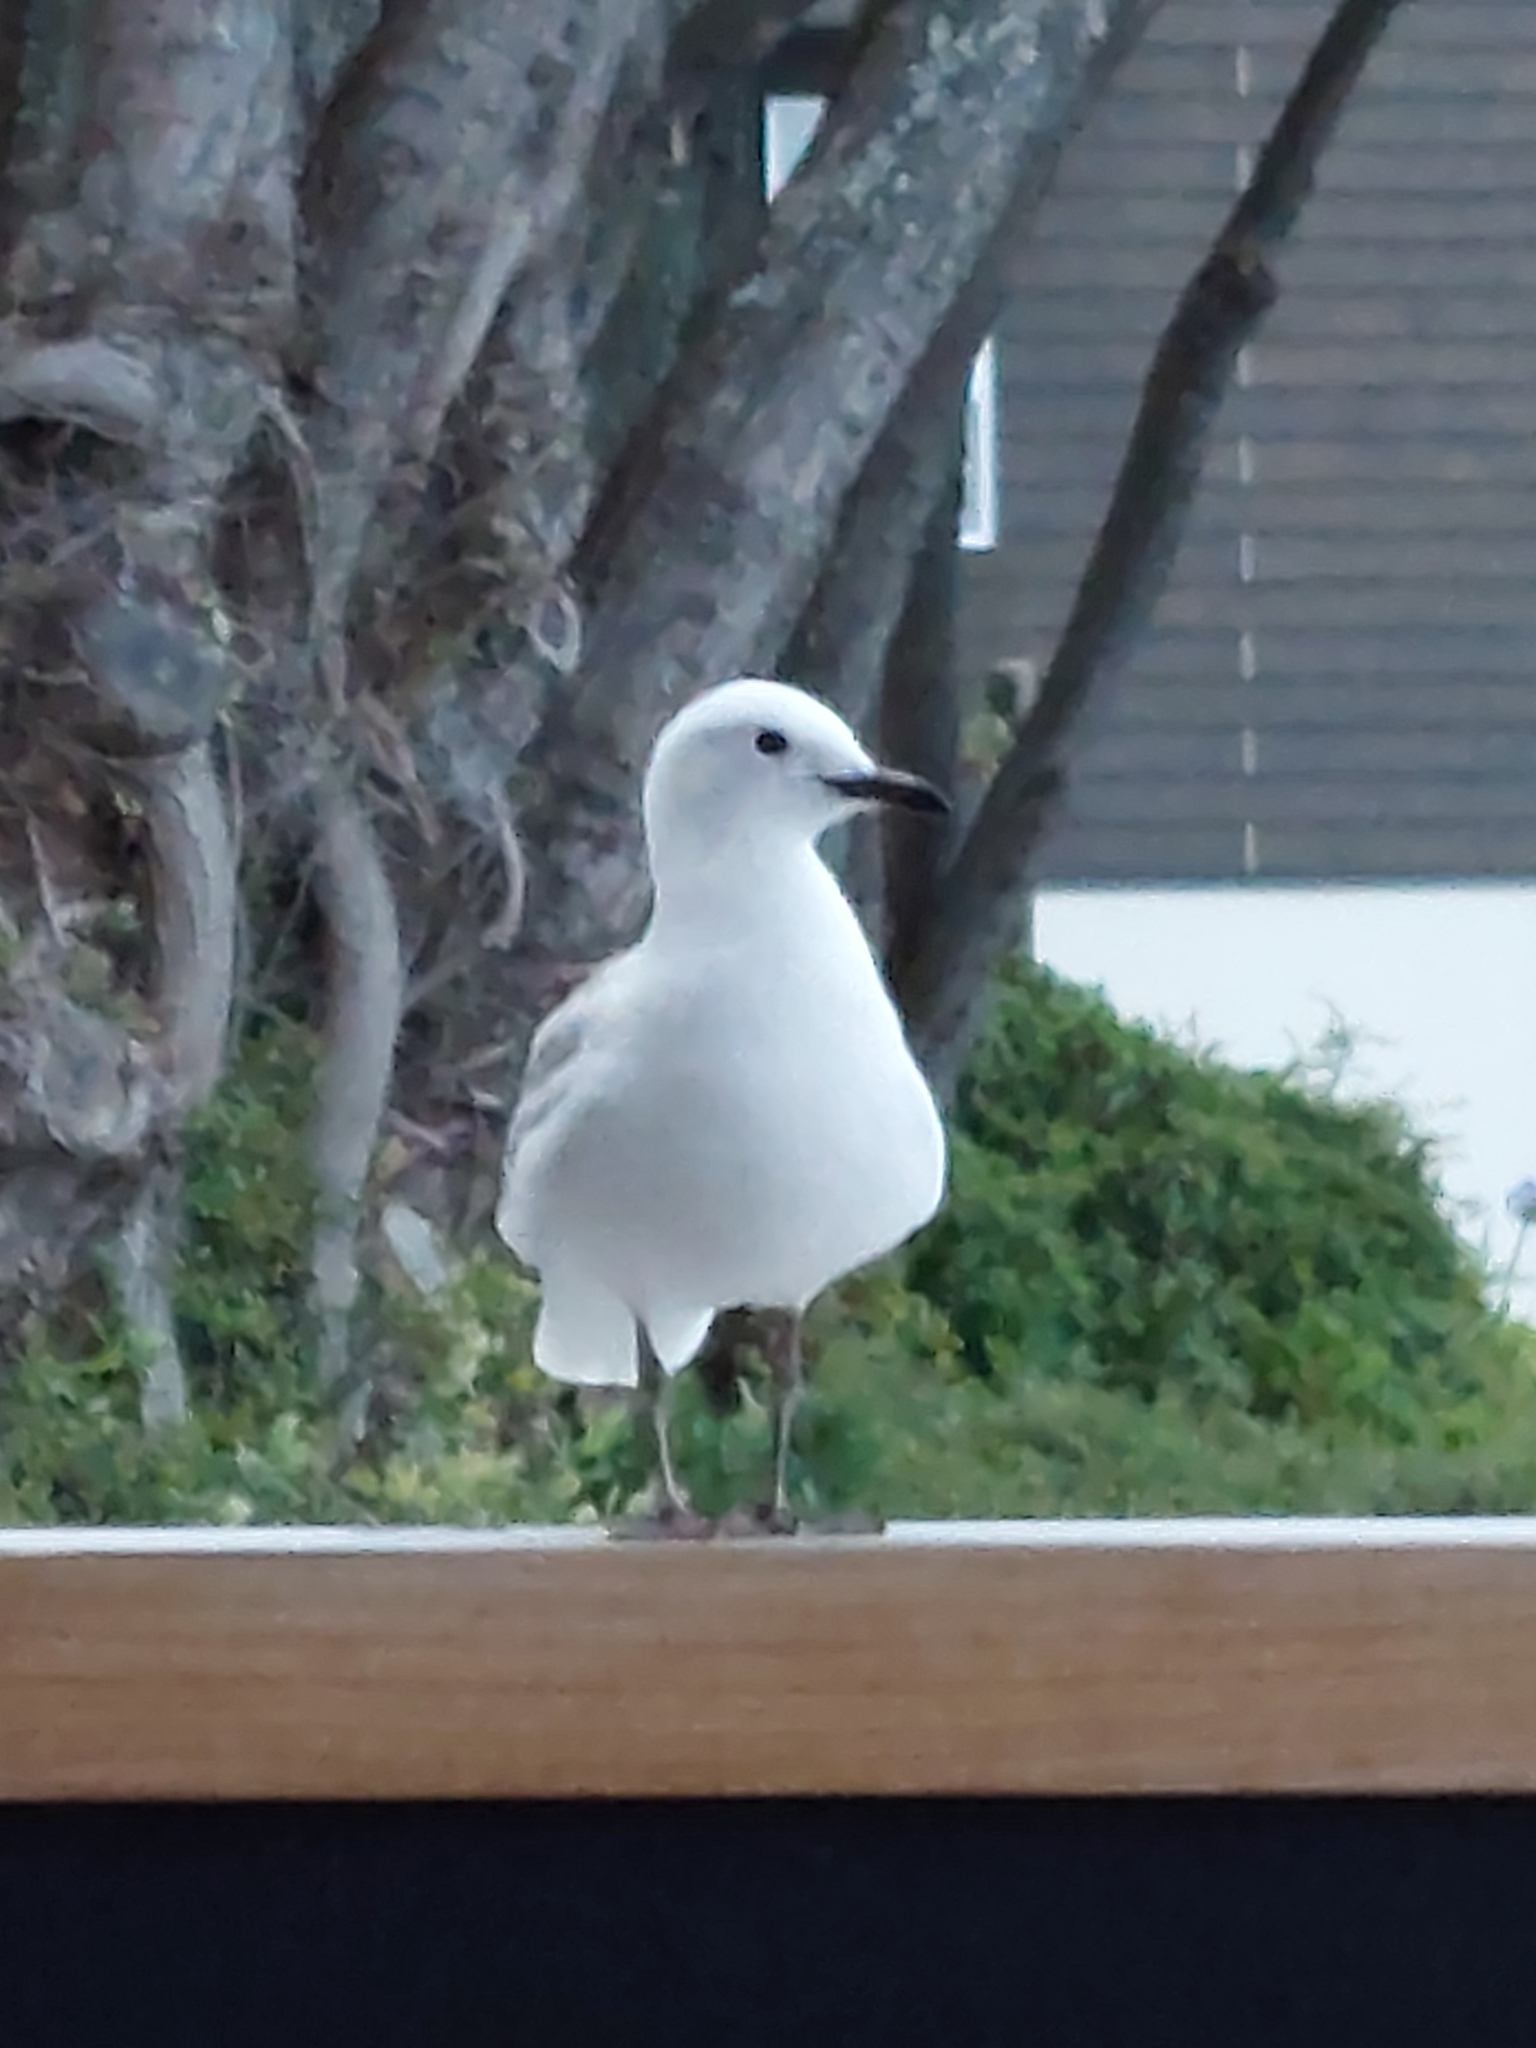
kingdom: Animalia
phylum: Chordata
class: Aves
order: Charadriiformes
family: Laridae
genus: Chroicocephalus
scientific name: Chroicocephalus bulleri
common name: Black-billed gull
